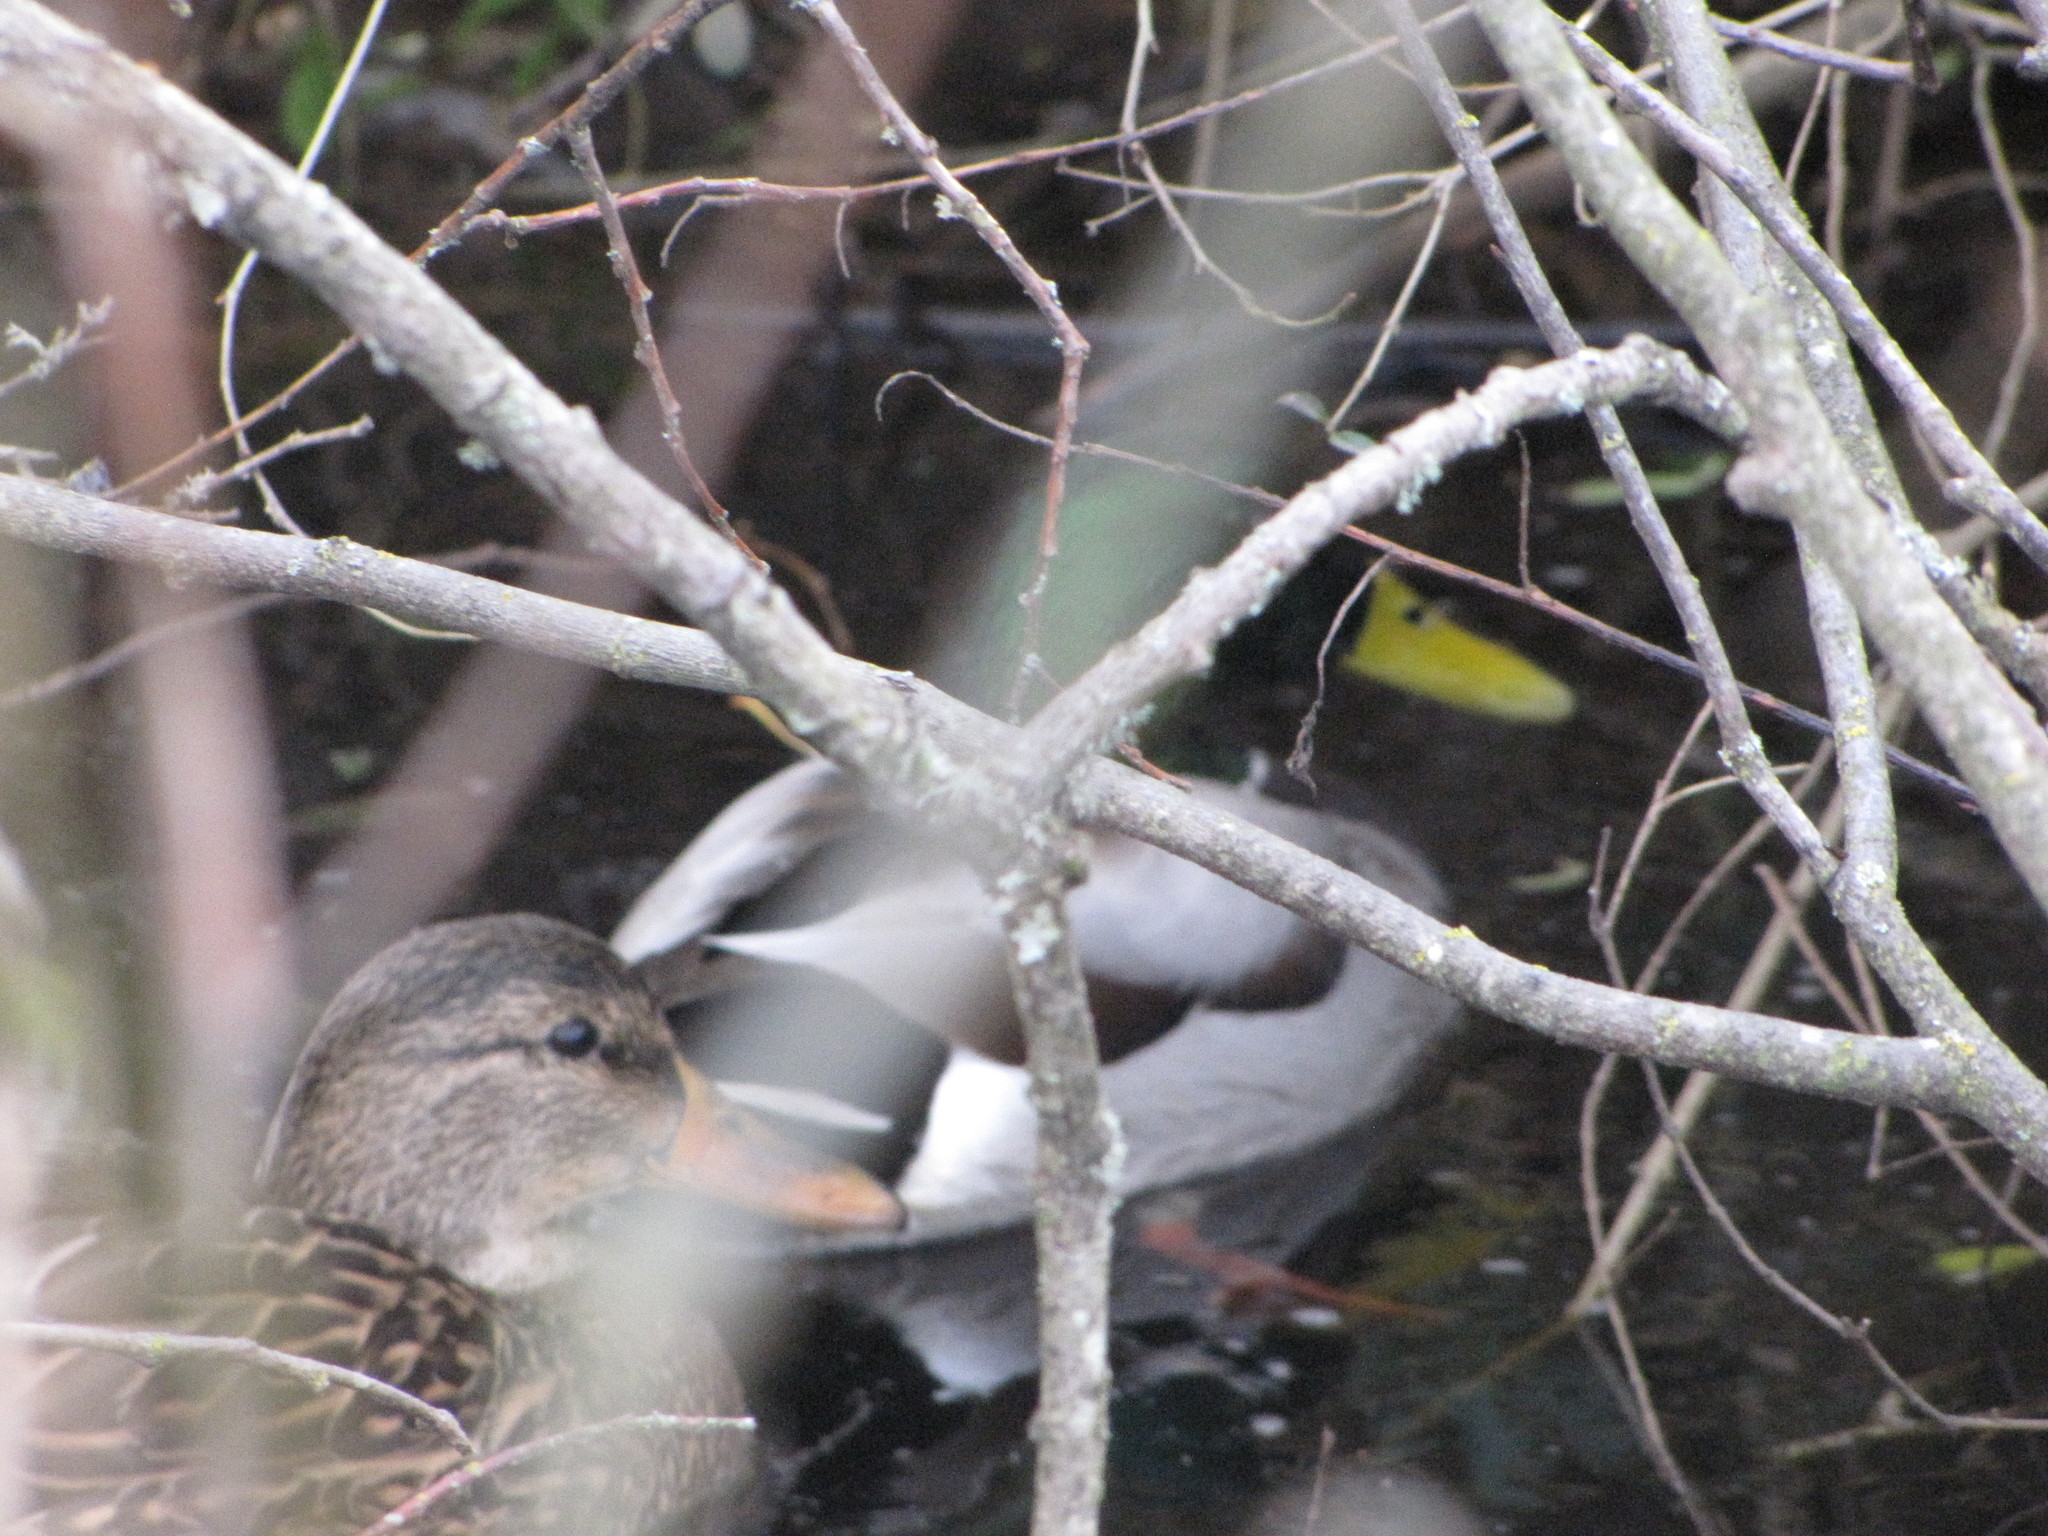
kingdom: Animalia
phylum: Chordata
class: Aves
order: Anseriformes
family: Anatidae
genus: Anas
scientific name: Anas platyrhynchos
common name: Mallard
